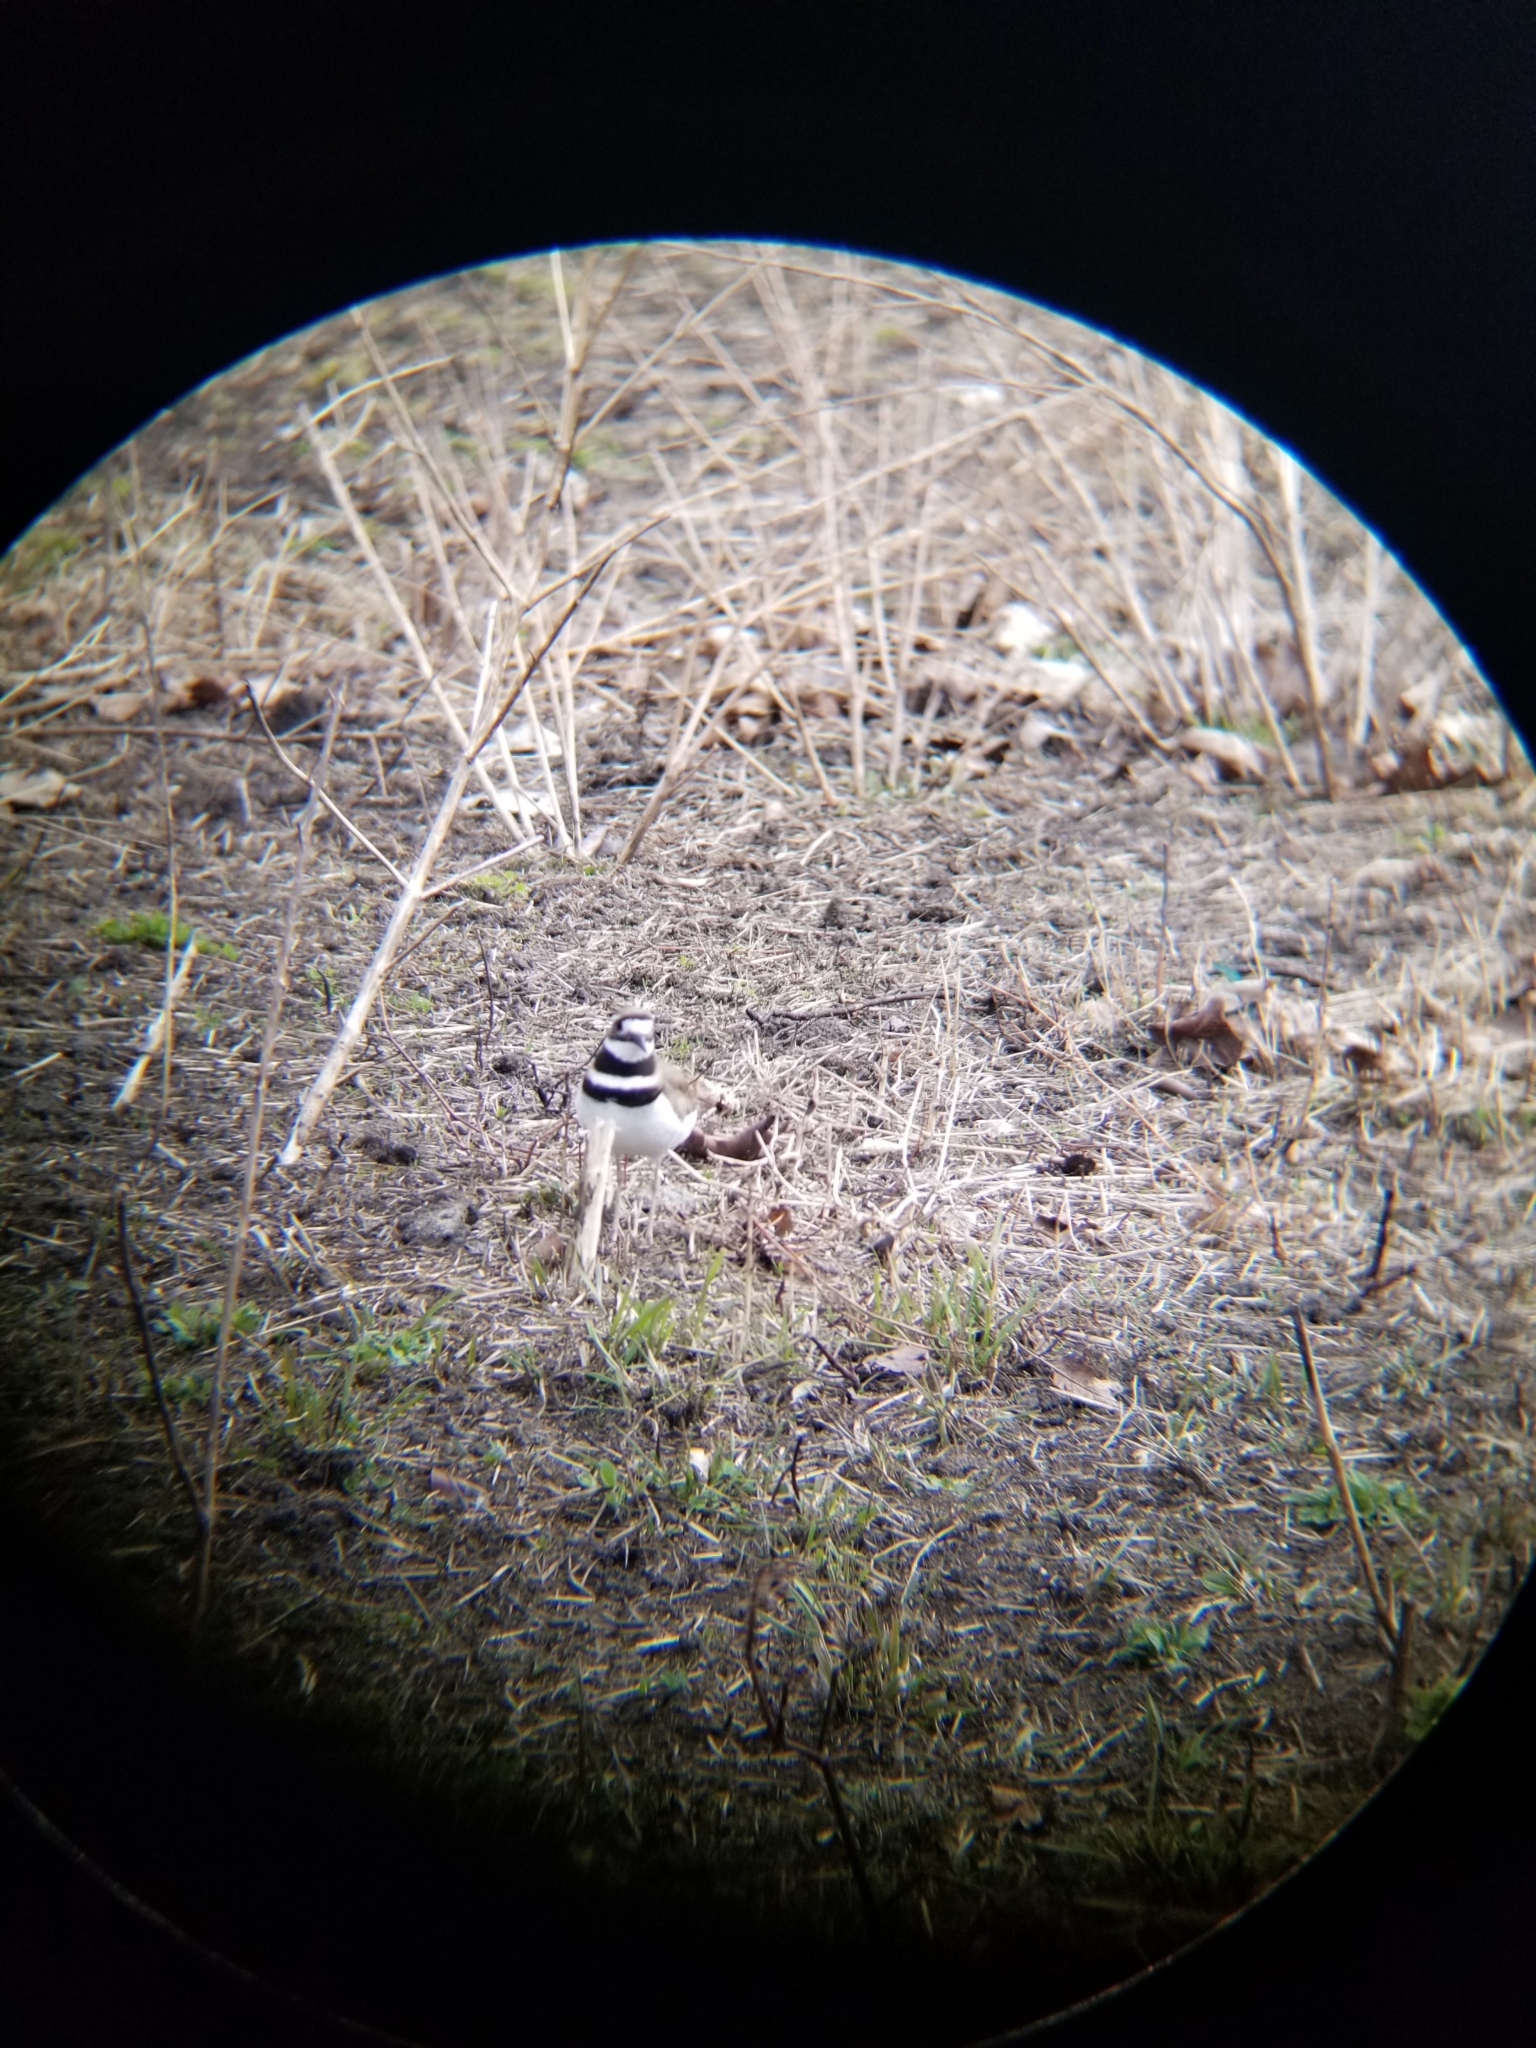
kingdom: Animalia
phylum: Chordata
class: Aves
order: Charadriiformes
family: Charadriidae
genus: Charadrius
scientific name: Charadrius vociferus
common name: Killdeer
